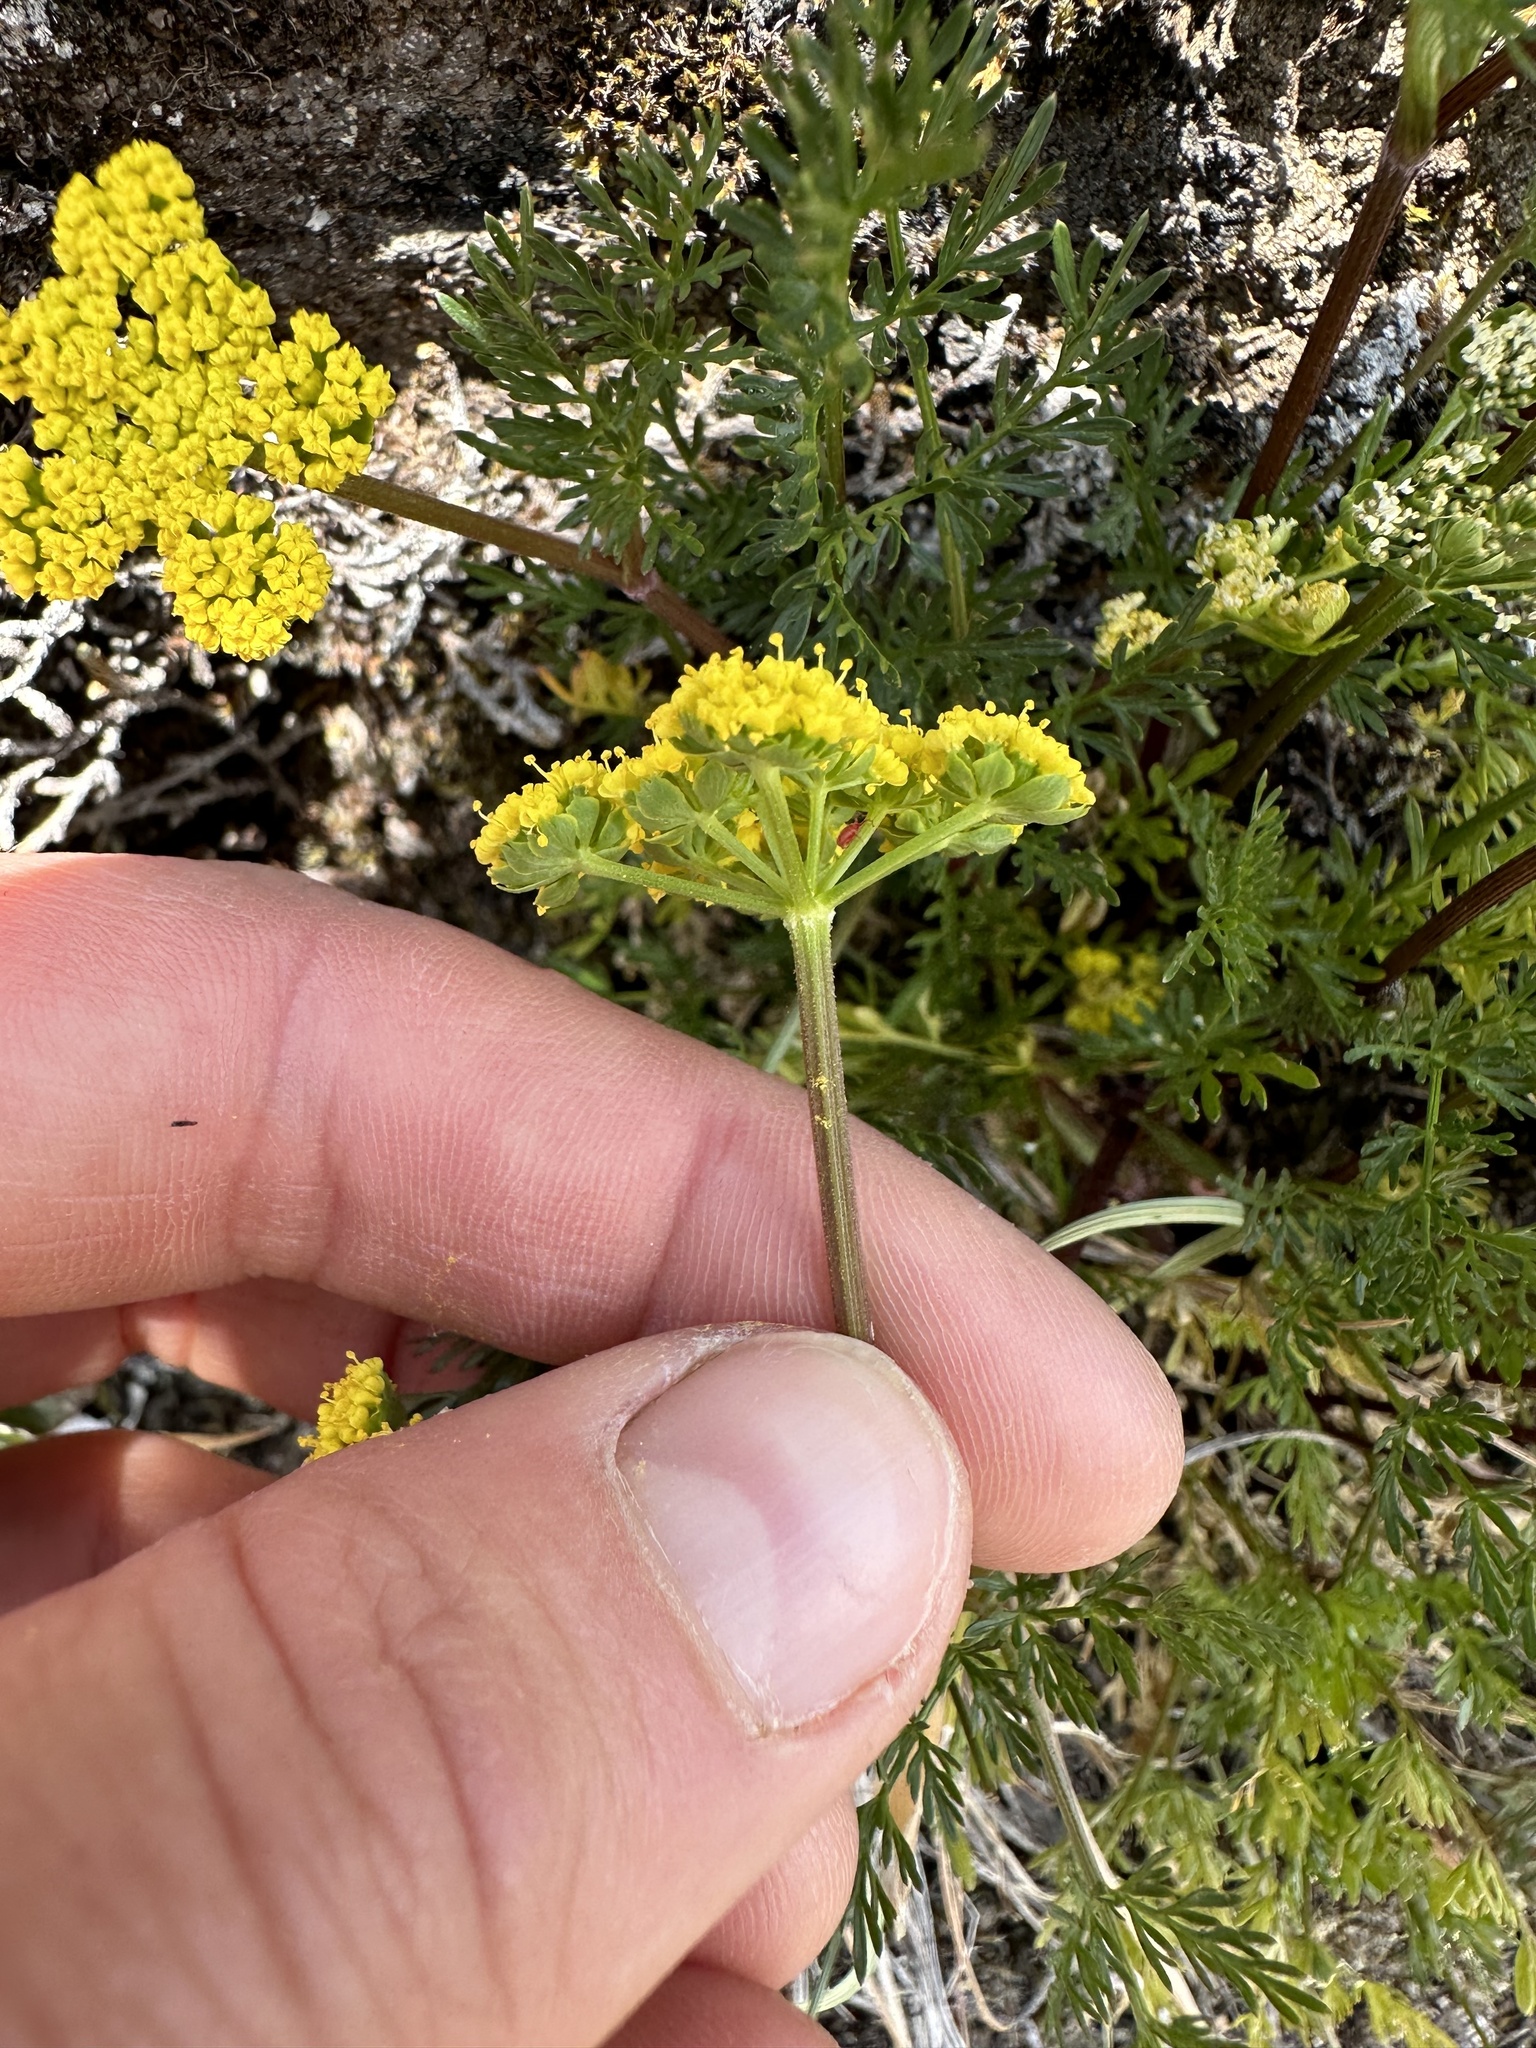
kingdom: Plantae
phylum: Tracheophyta
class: Magnoliopsida
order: Apiales
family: Apiaceae
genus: Lomatium
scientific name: Lomatium utriculatum
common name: Fine-leaf desert-parsley
